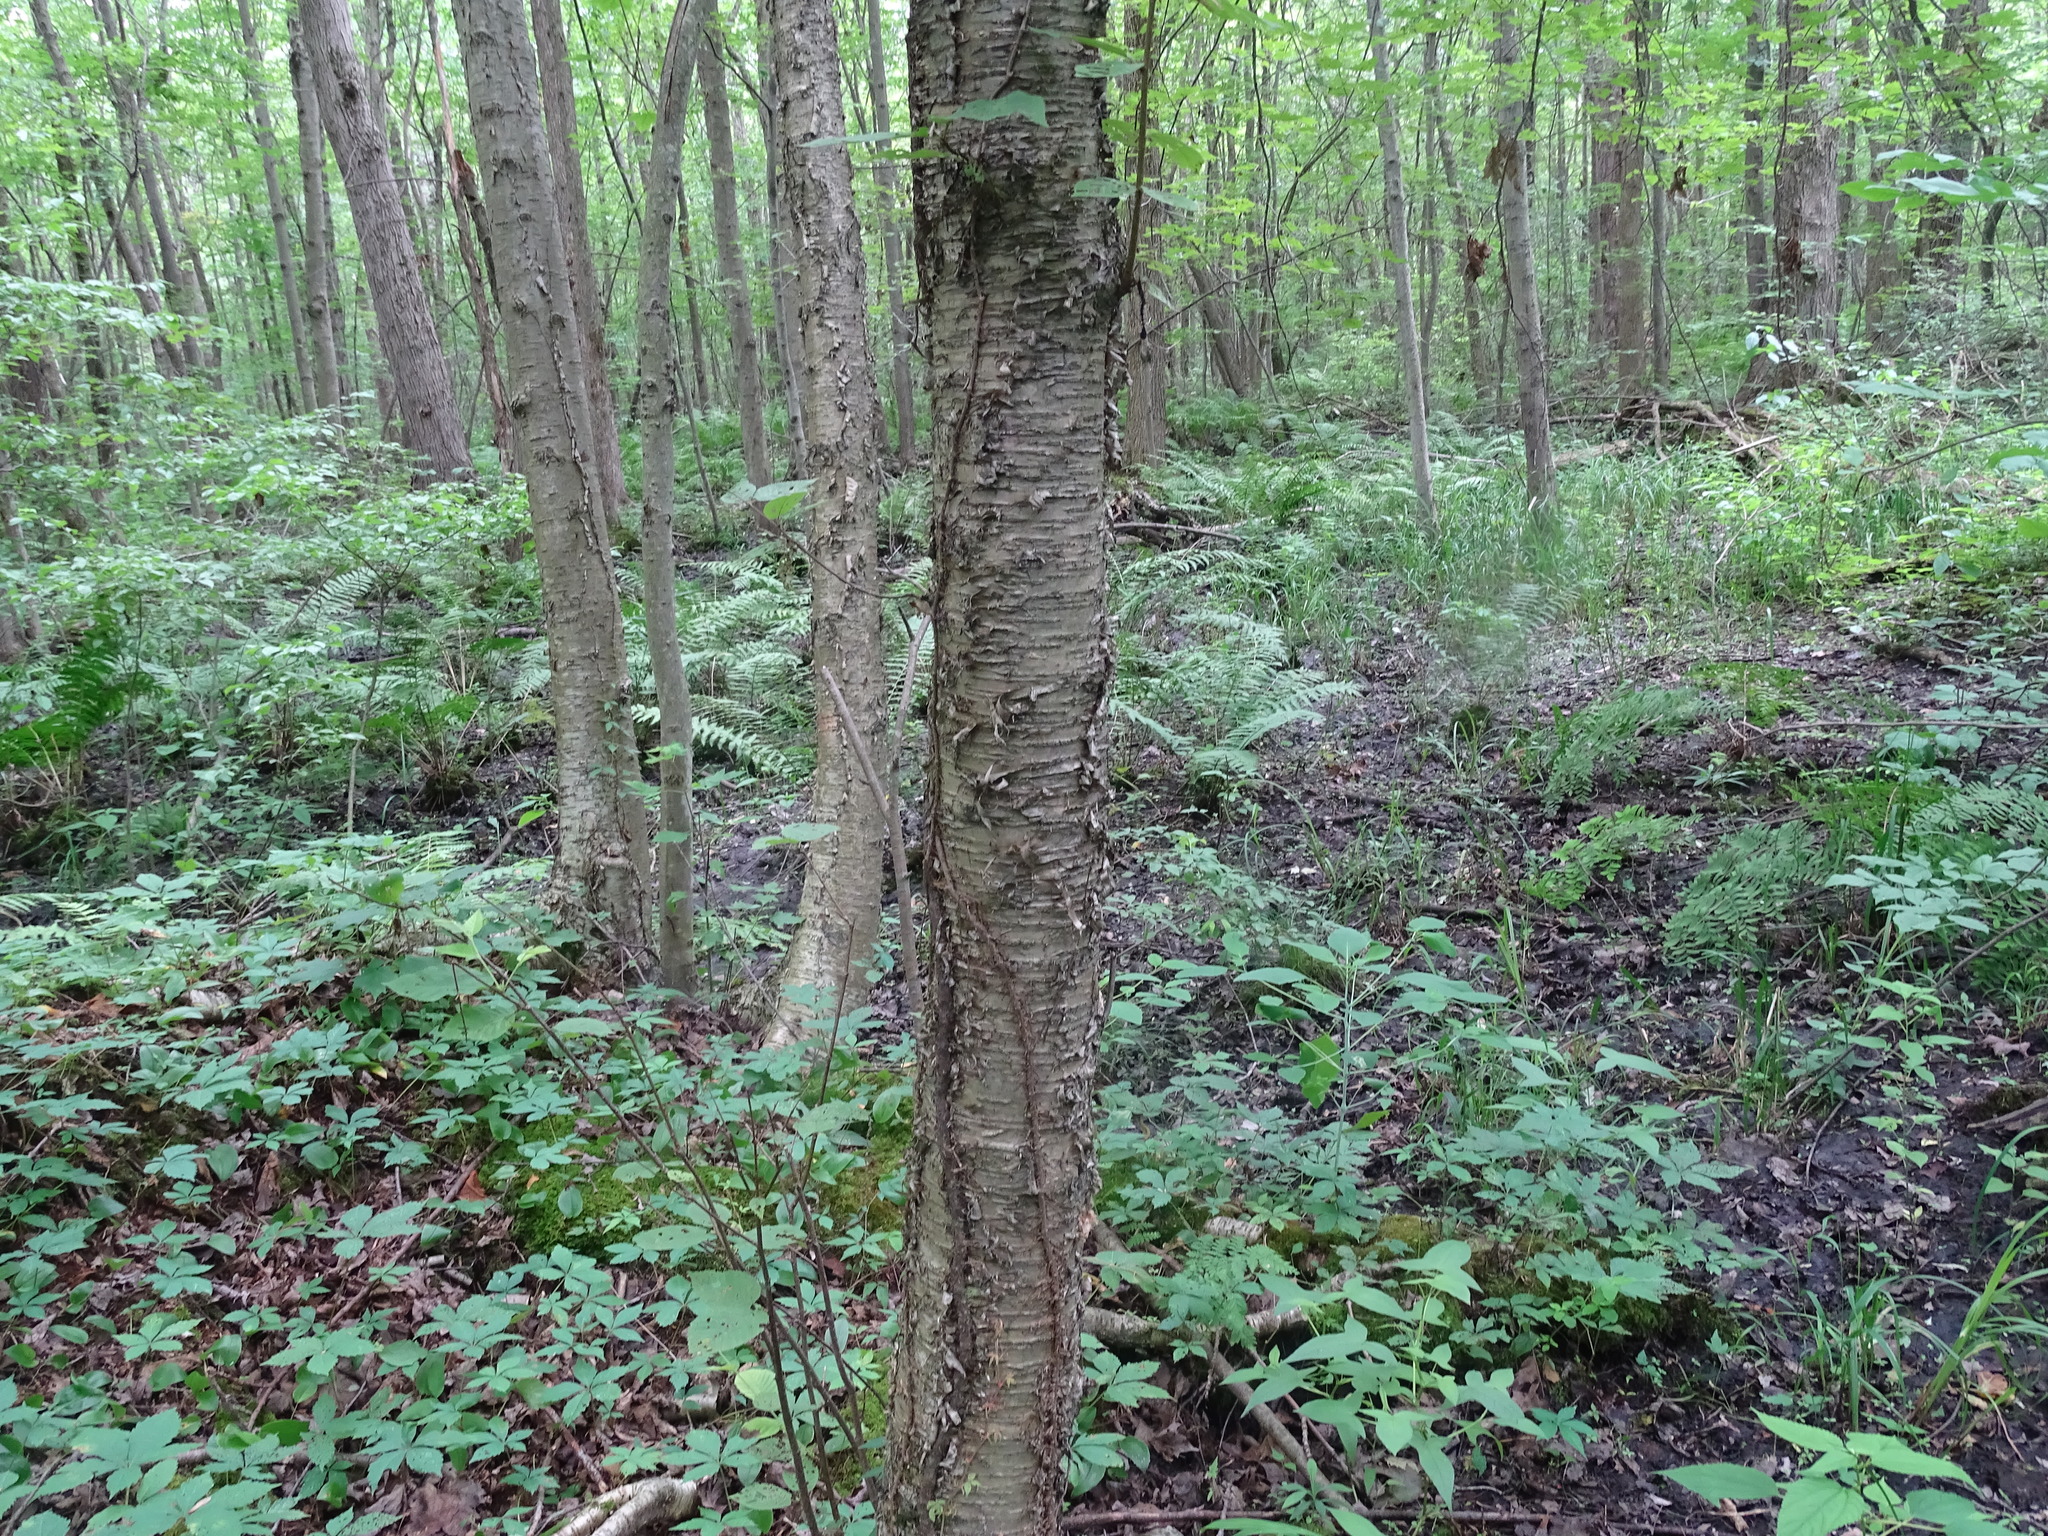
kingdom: Plantae
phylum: Tracheophyta
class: Magnoliopsida
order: Fagales
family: Betulaceae
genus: Betula
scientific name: Betula alleghaniensis
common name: Yellow birch
